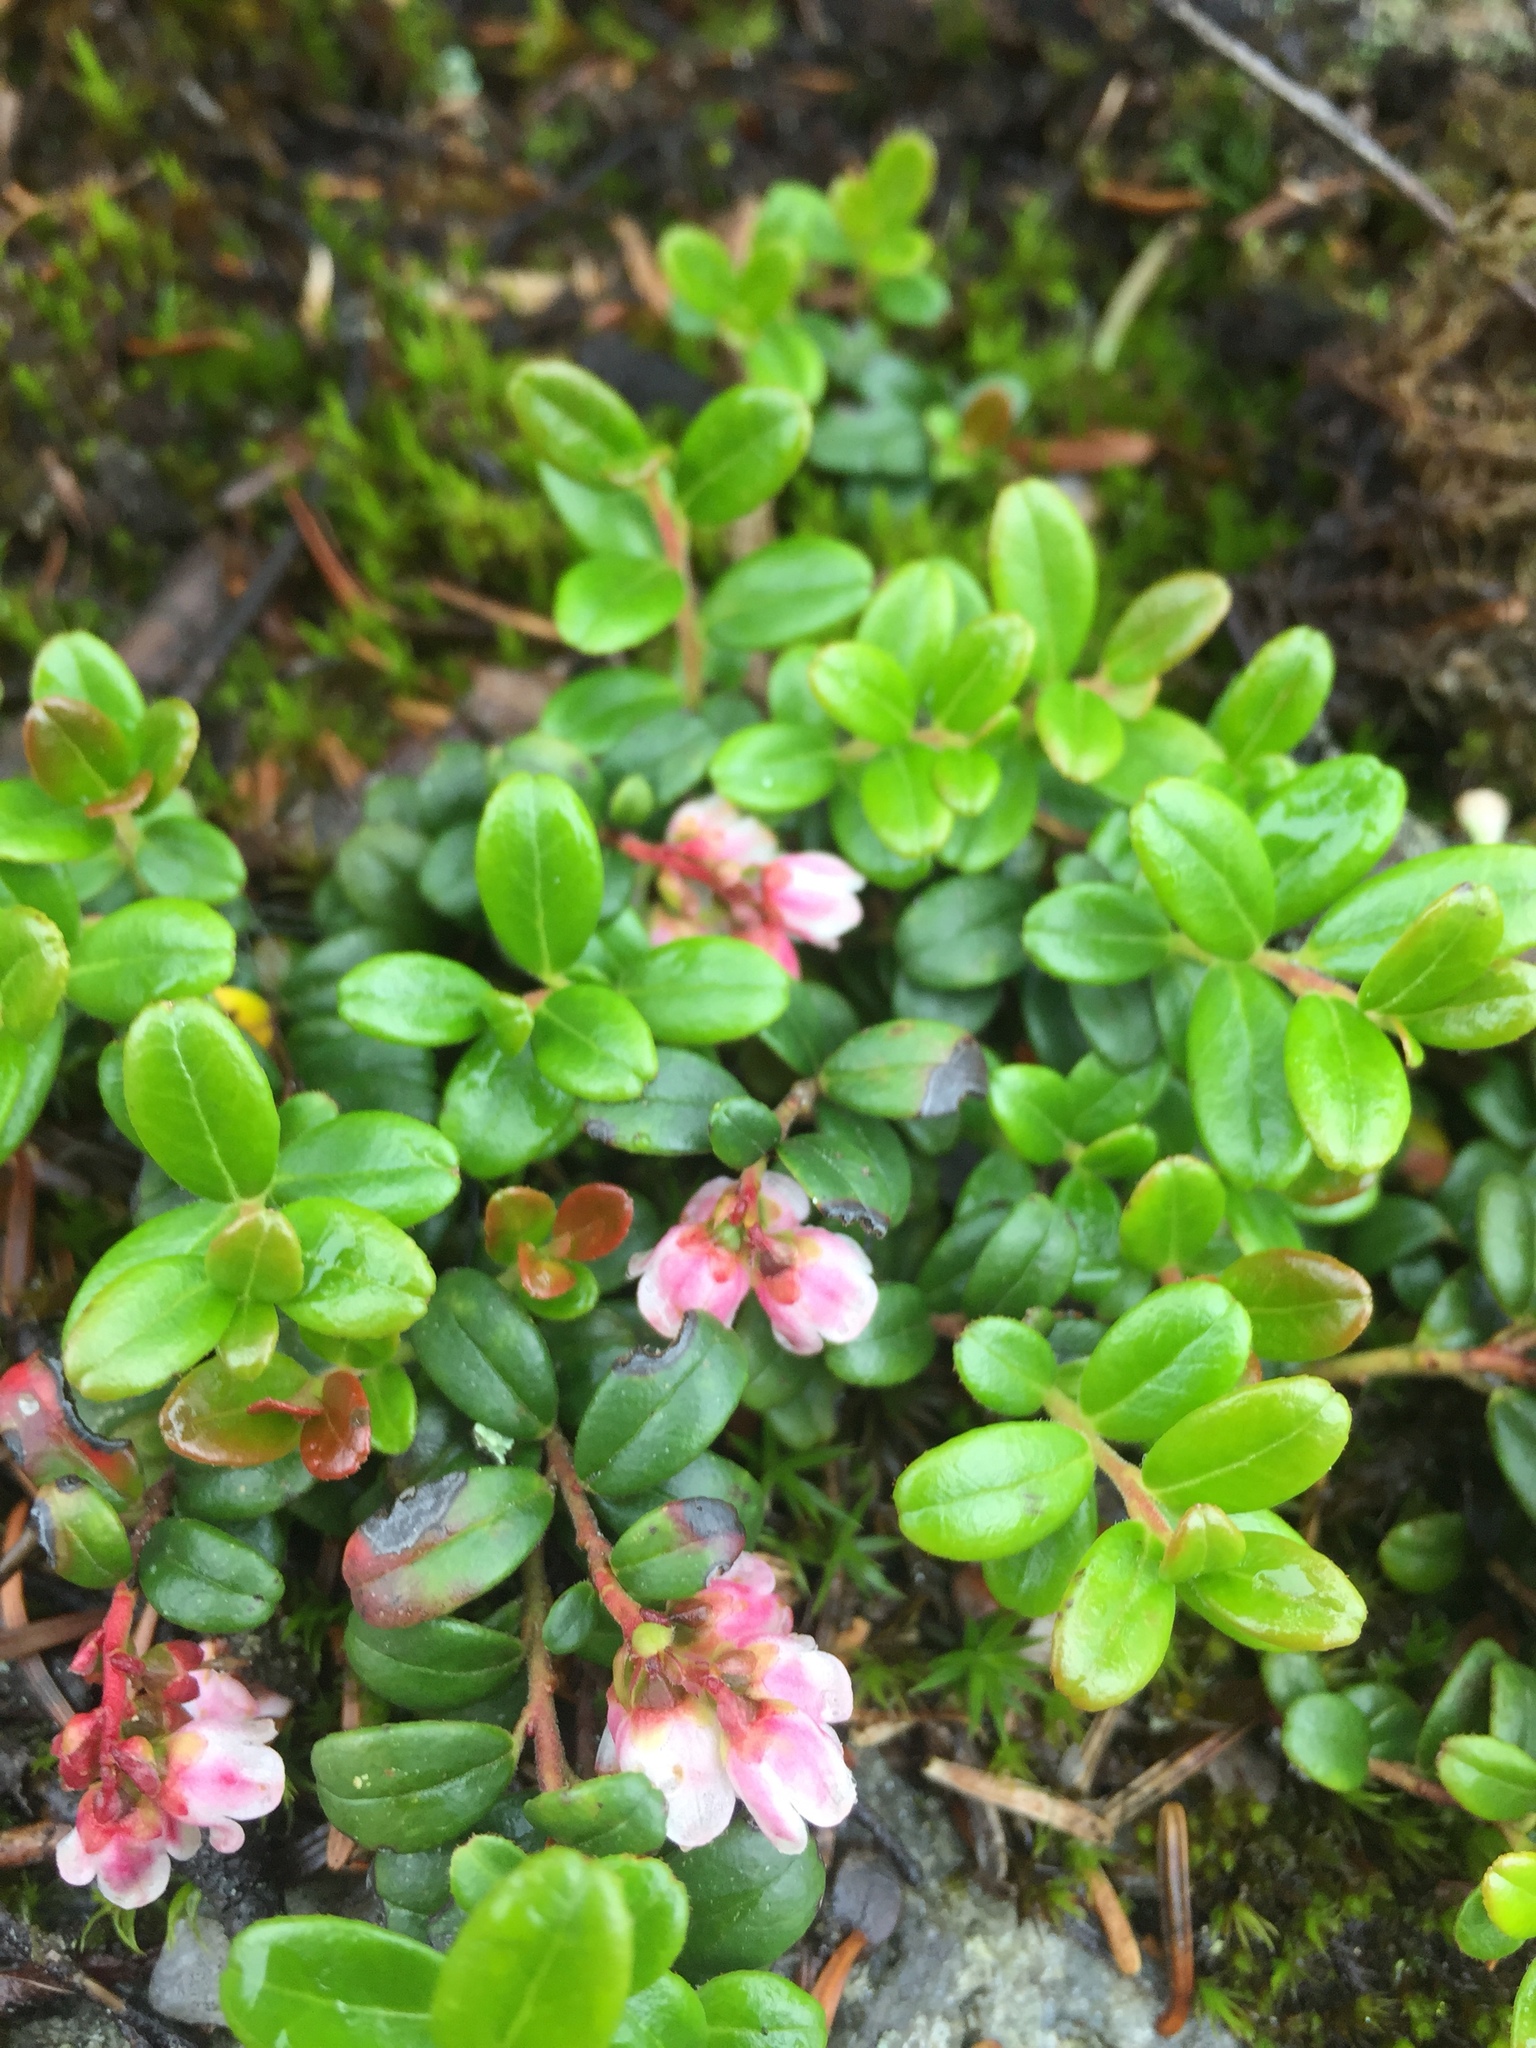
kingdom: Plantae
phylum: Tracheophyta
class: Magnoliopsida
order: Ericales
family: Ericaceae
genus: Vaccinium
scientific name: Vaccinium vitis-idaea
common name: Cowberry
